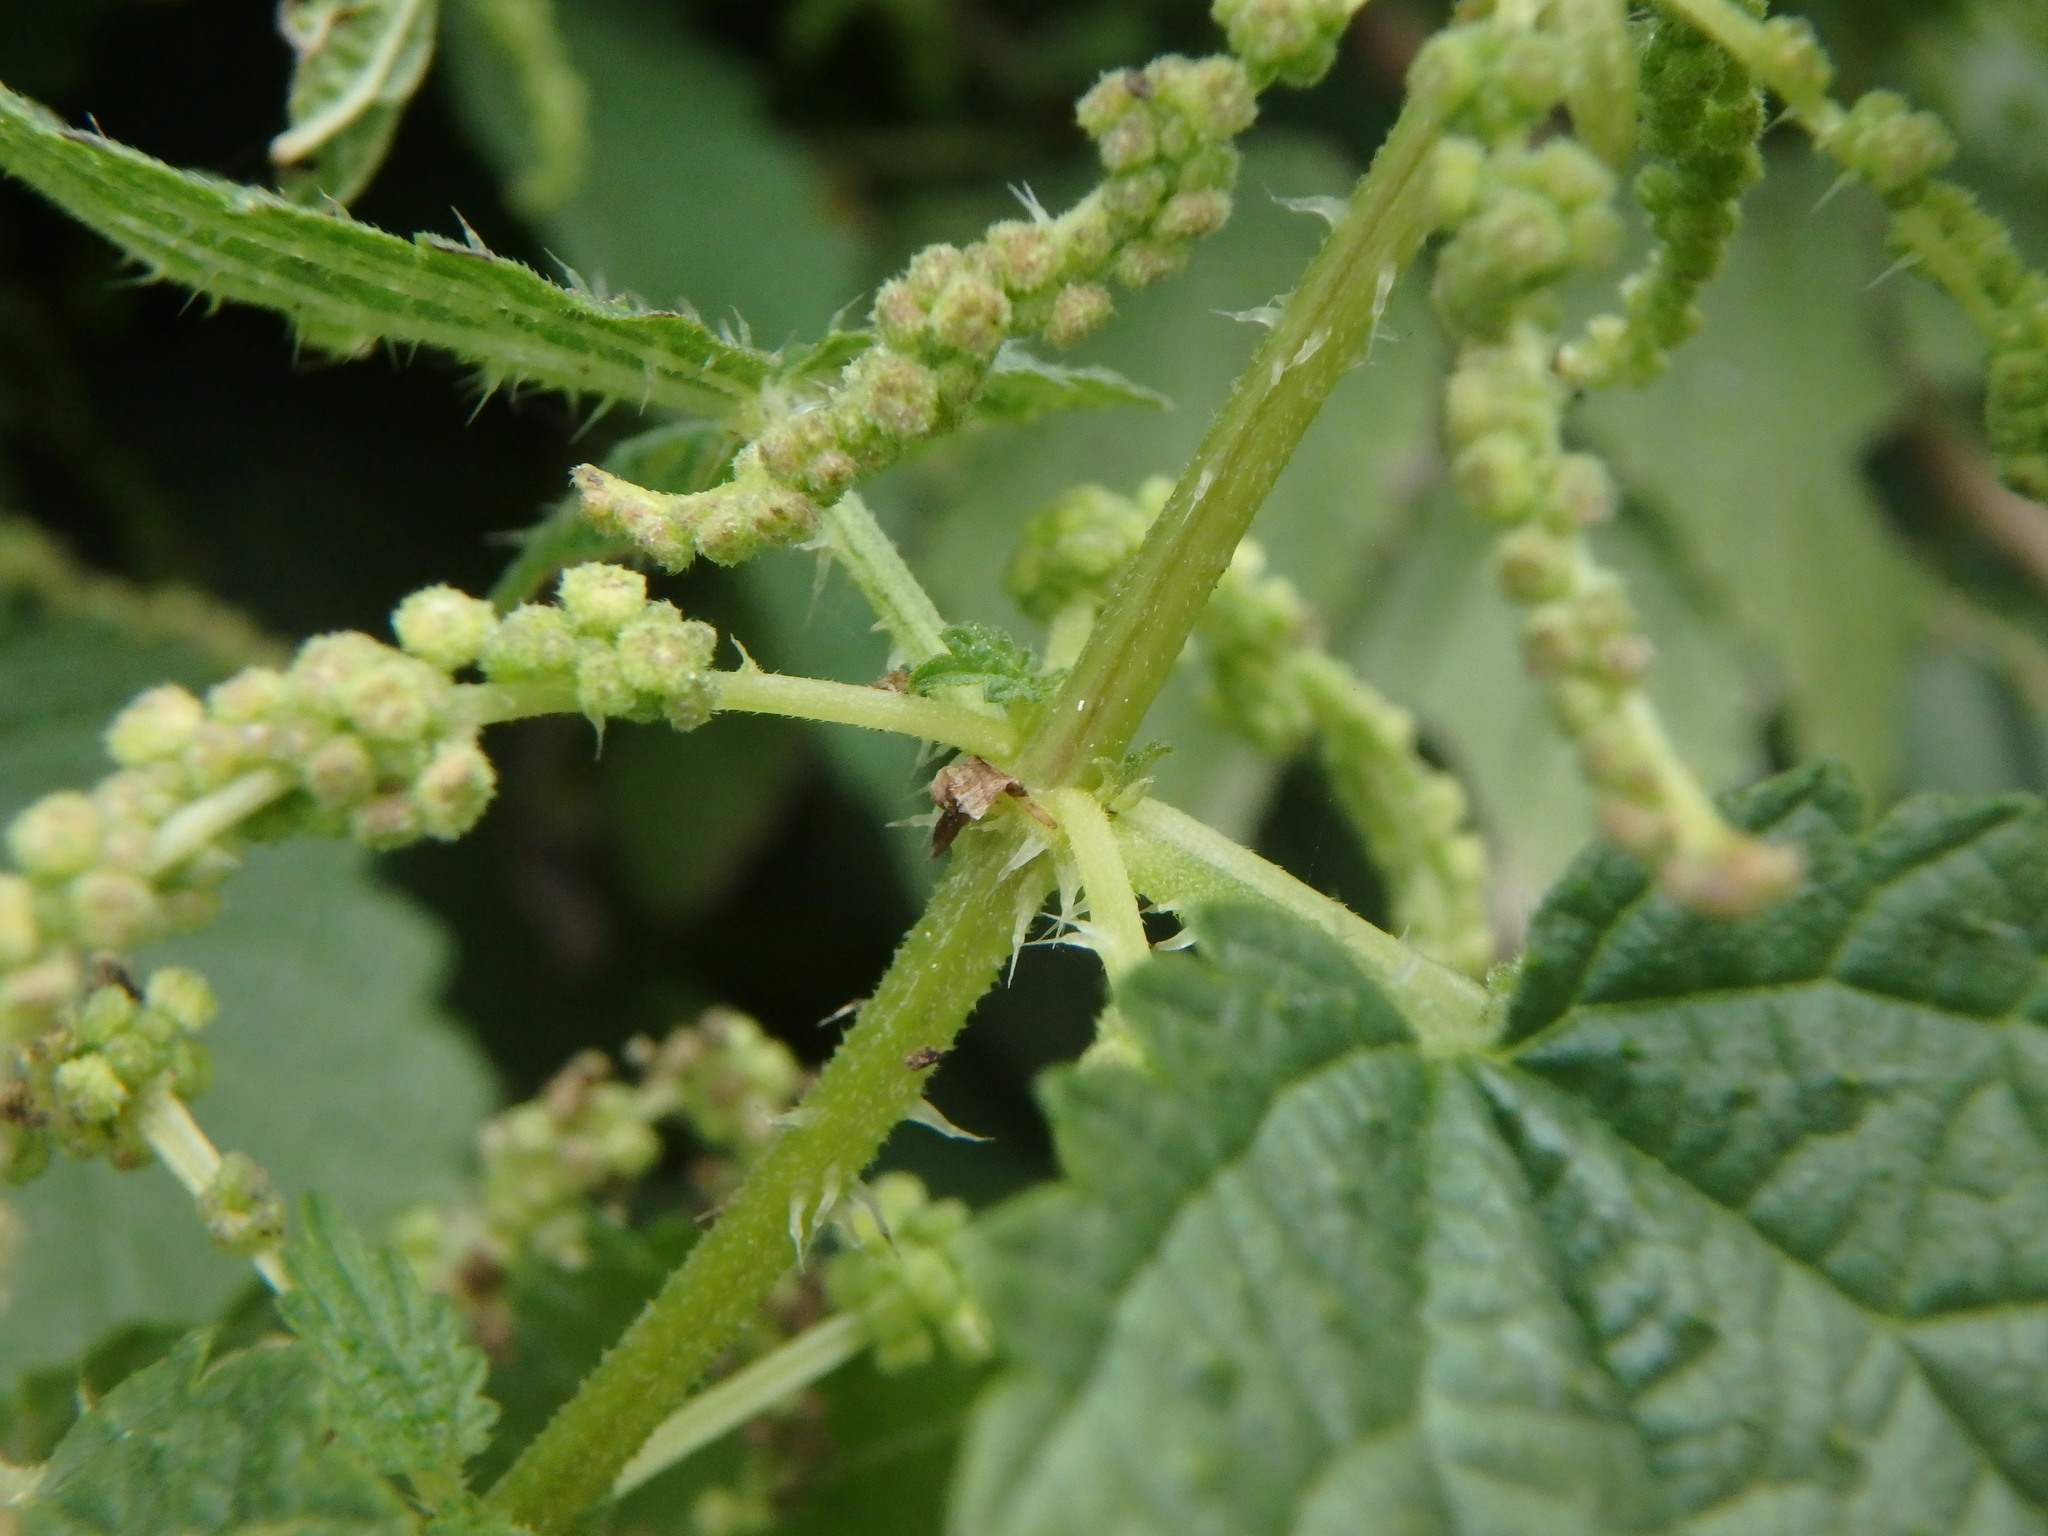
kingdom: Plantae
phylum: Tracheophyta
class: Magnoliopsida
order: Rosales
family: Urticaceae
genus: Urtica
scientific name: Urtica morifolia
